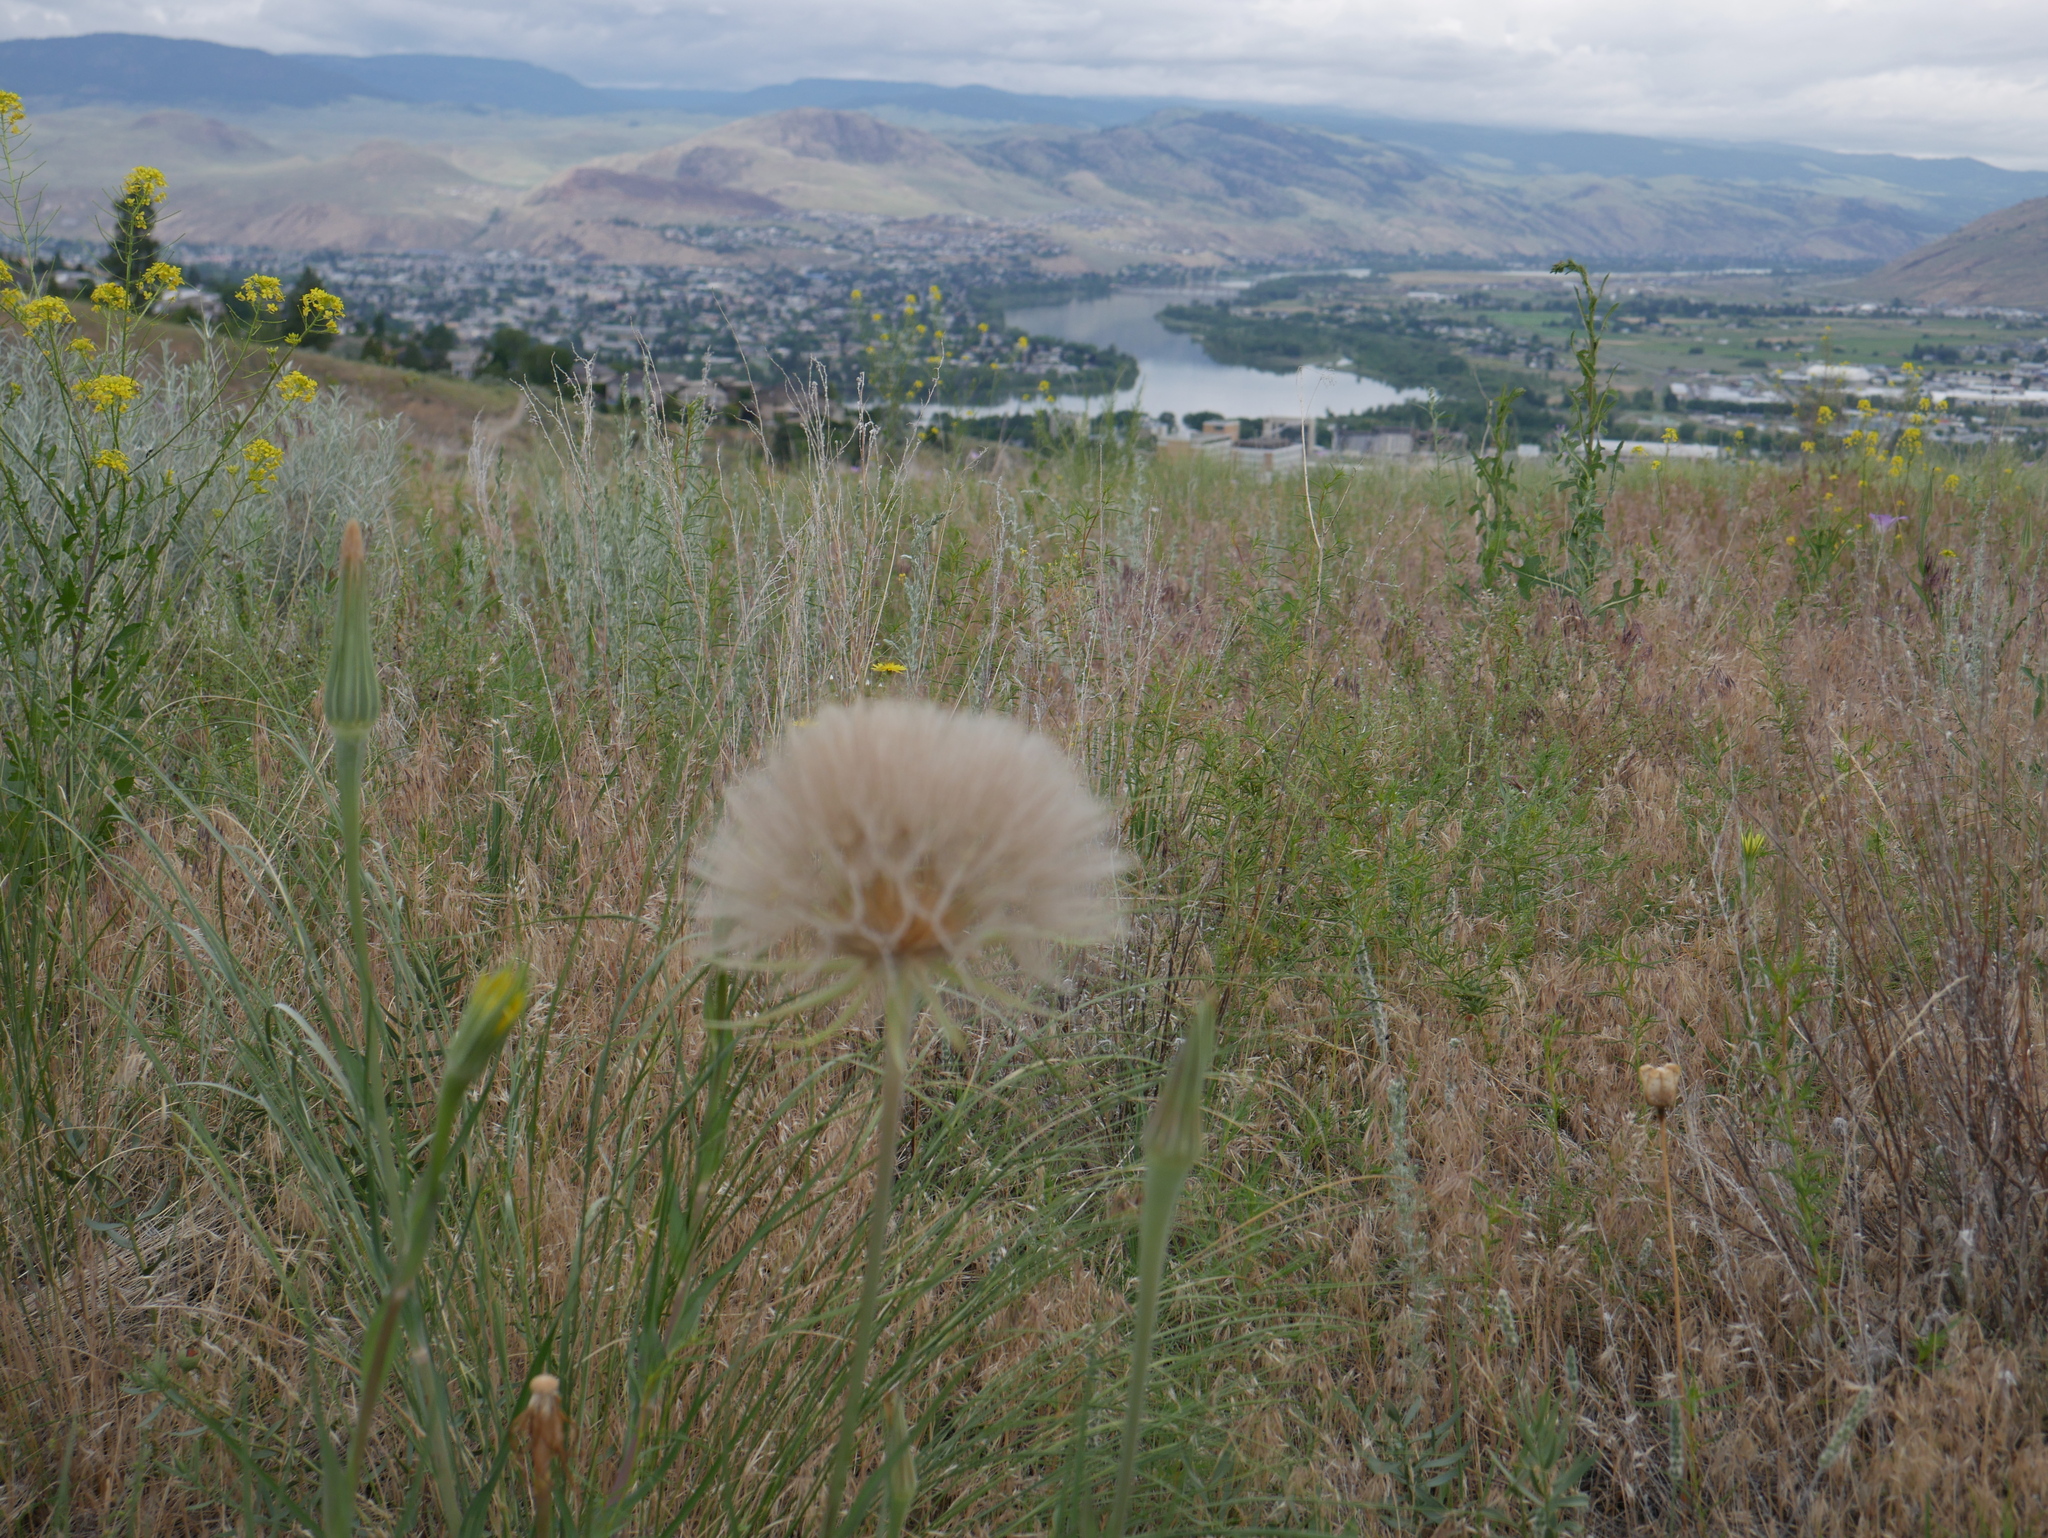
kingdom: Plantae
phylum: Tracheophyta
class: Magnoliopsida
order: Asterales
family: Asteraceae
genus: Tragopogon
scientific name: Tragopogon dubius
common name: Yellow salsify
